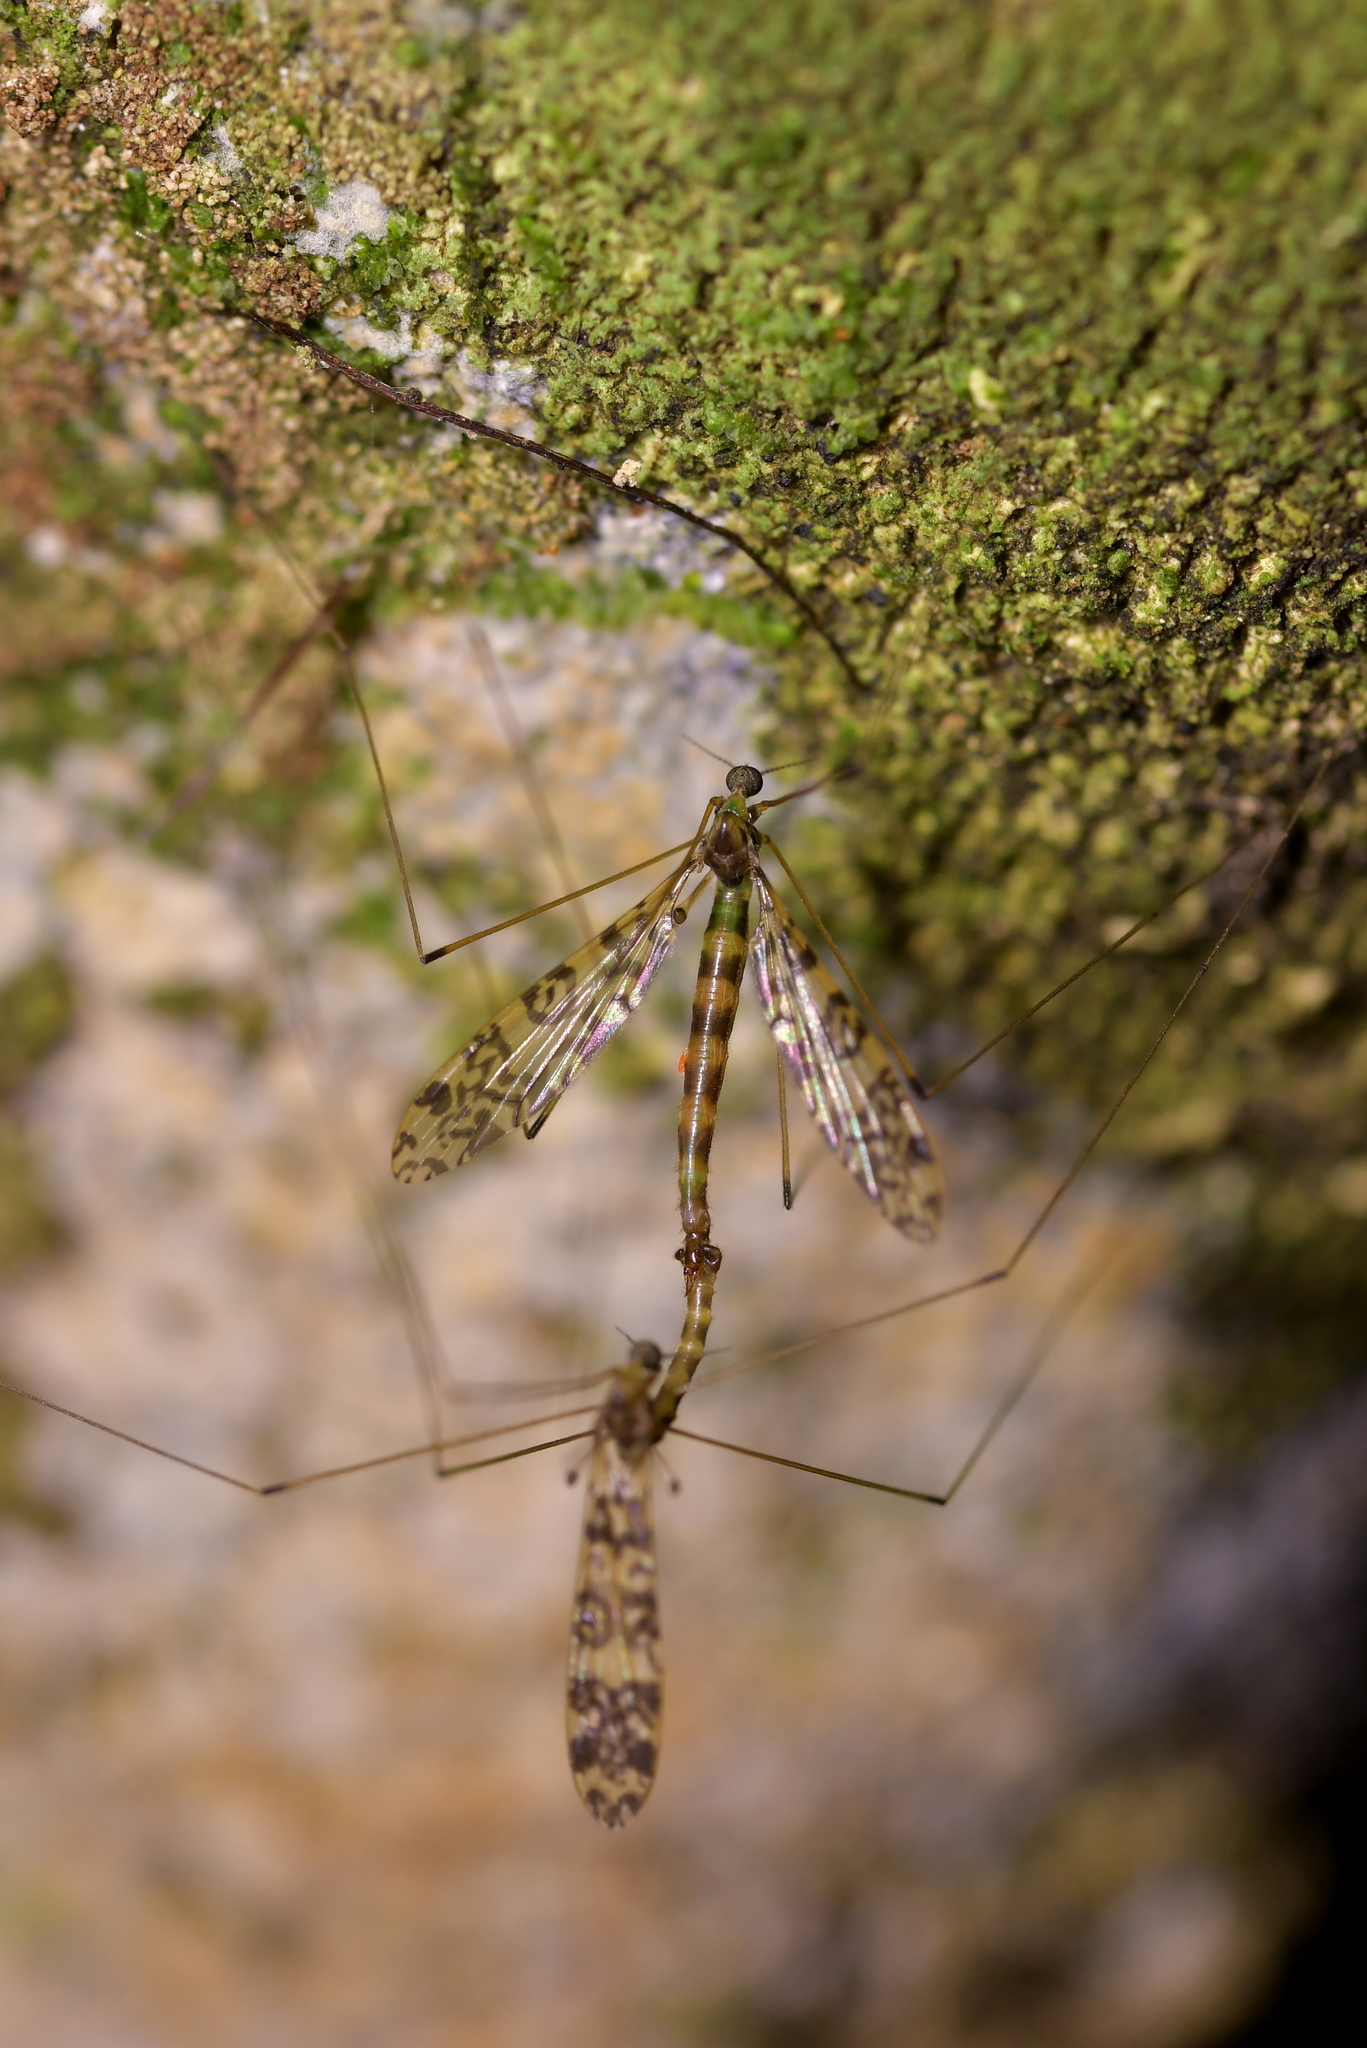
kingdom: Animalia
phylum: Arthropoda
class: Insecta
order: Diptera
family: Limoniidae
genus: Discobola
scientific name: Discobola gibberina
